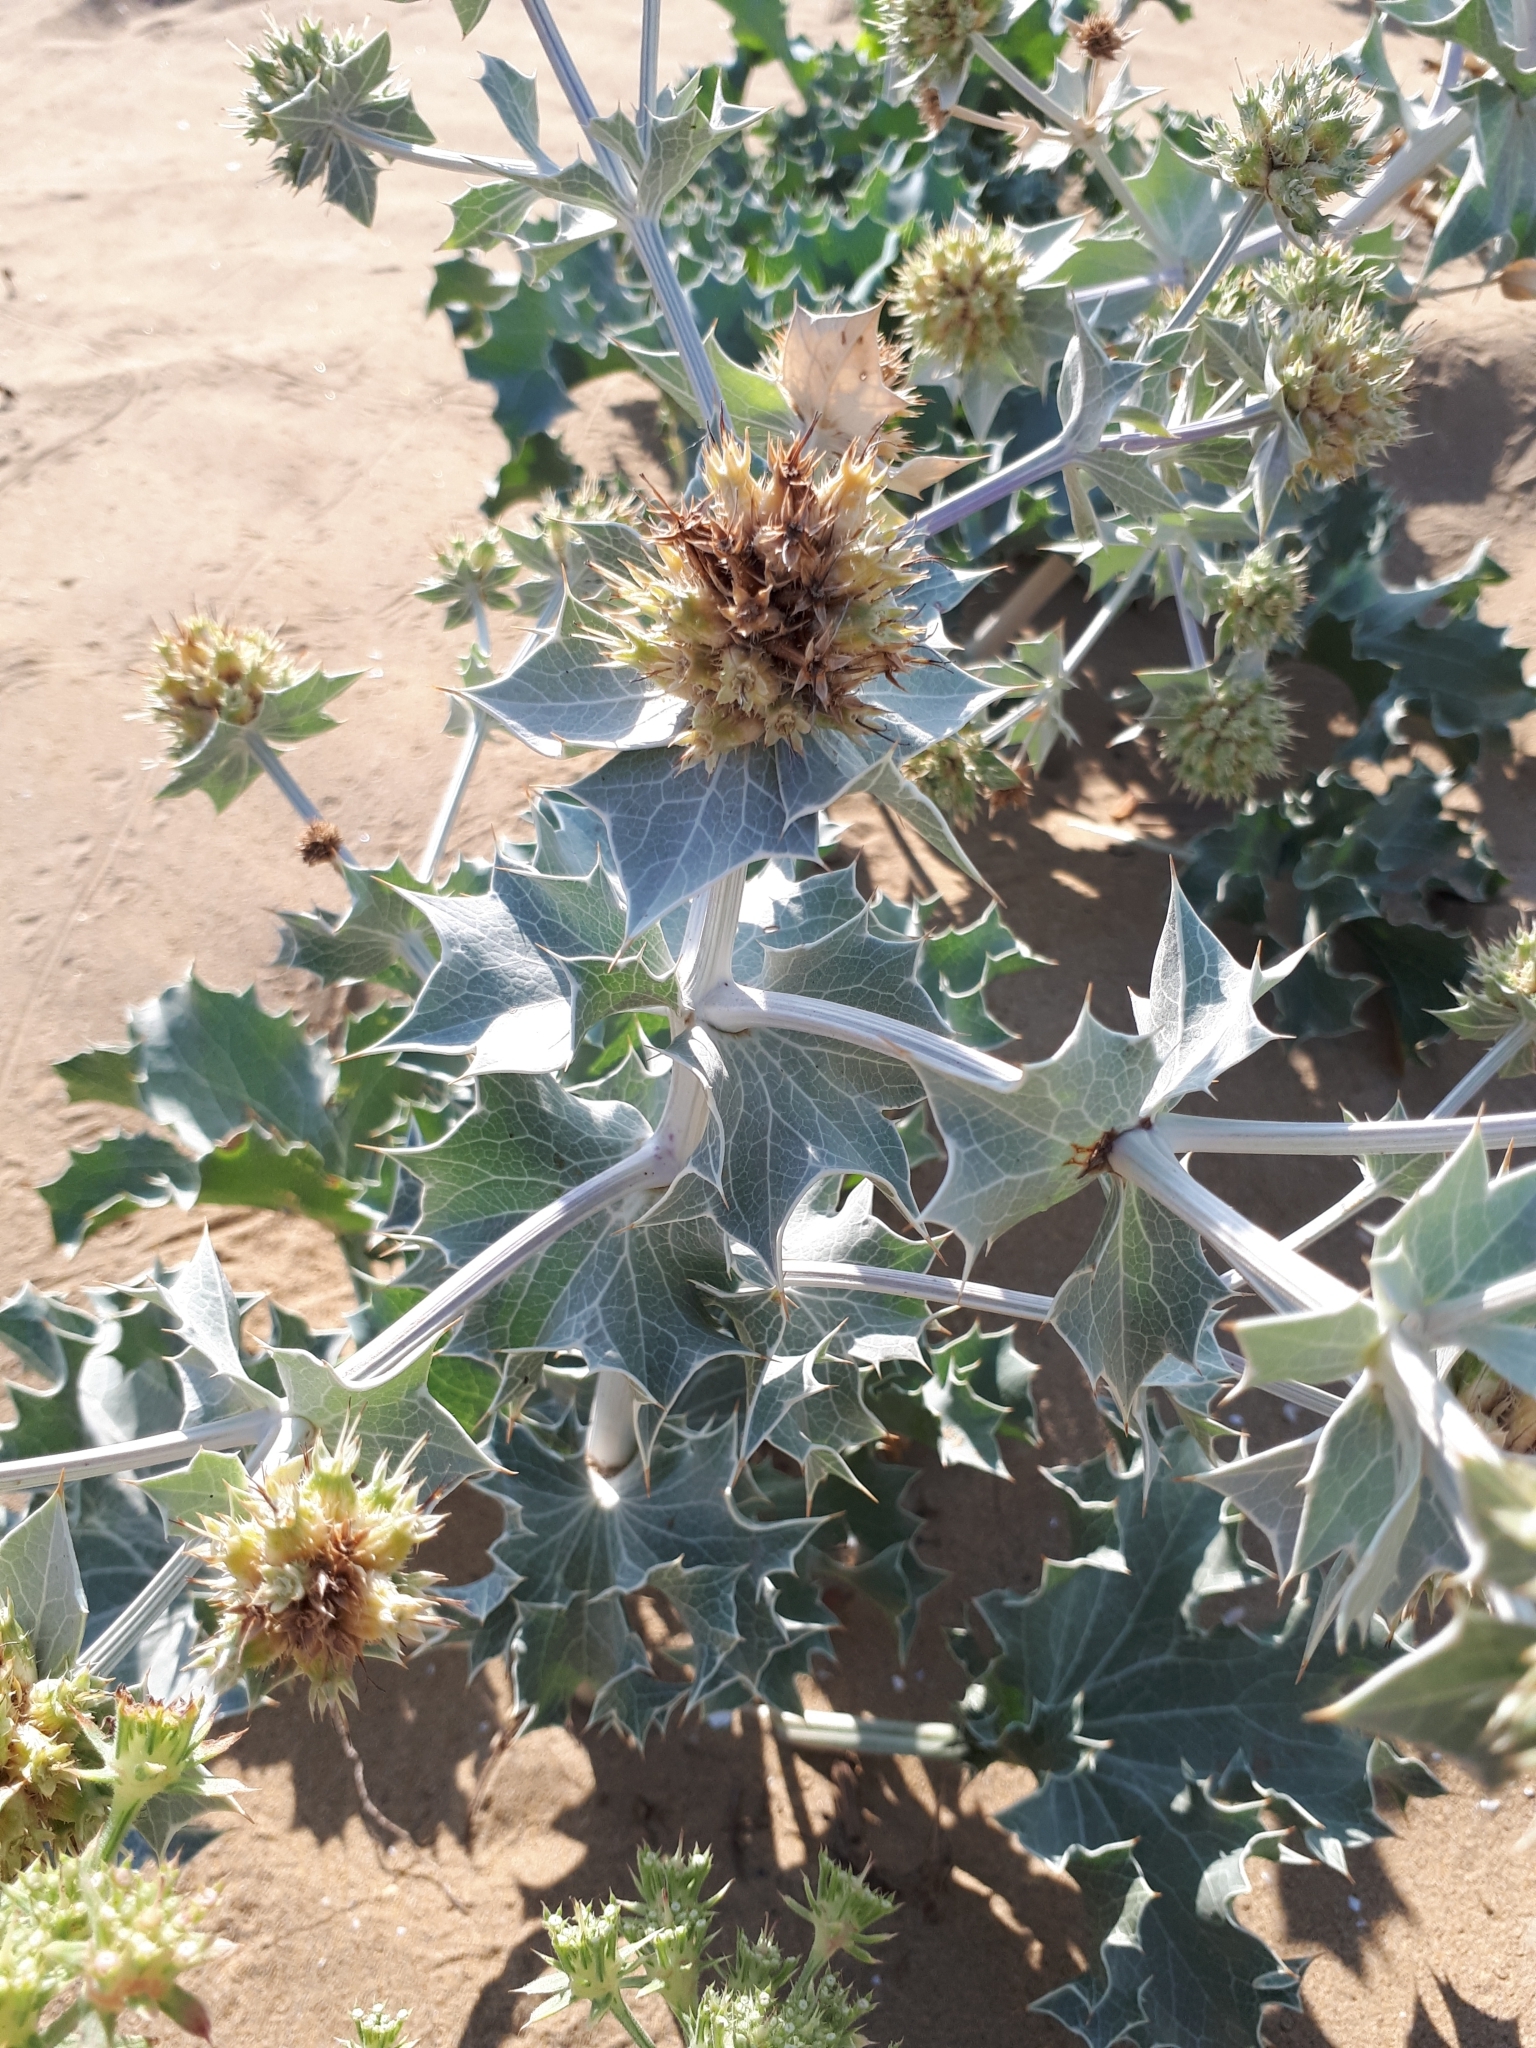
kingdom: Plantae
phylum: Tracheophyta
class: Magnoliopsida
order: Apiales
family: Apiaceae
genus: Eryngium
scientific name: Eryngium maritimum
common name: Sea-holly
